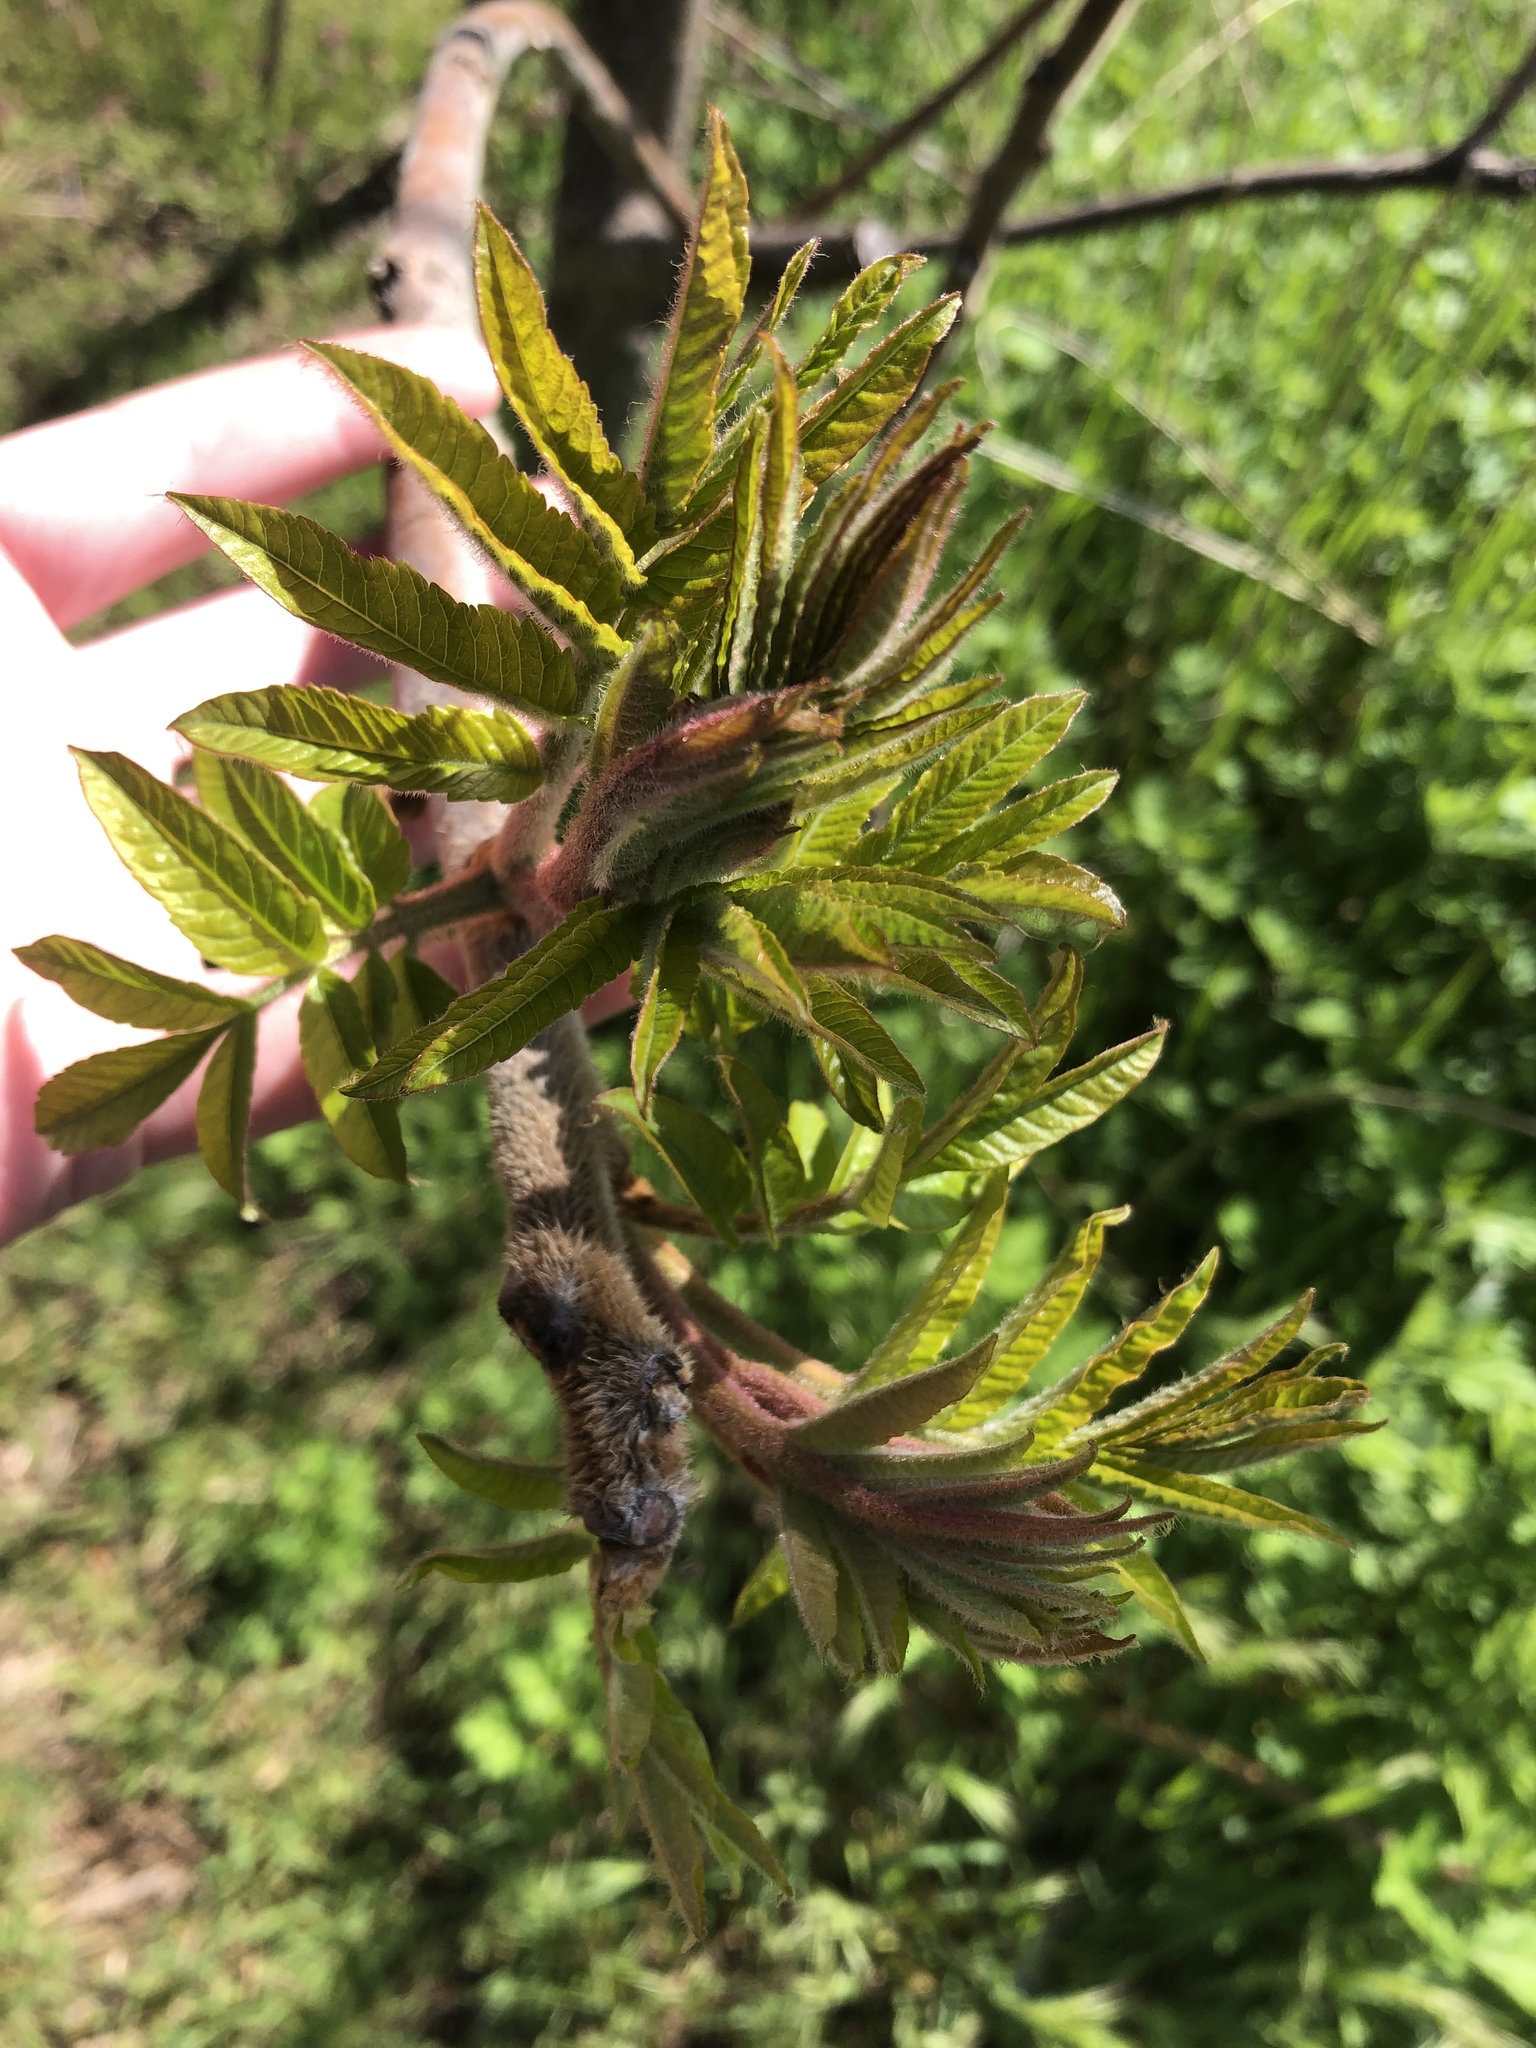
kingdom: Plantae
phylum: Tracheophyta
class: Magnoliopsida
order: Sapindales
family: Anacardiaceae
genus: Rhus
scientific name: Rhus typhina
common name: Staghorn sumac
